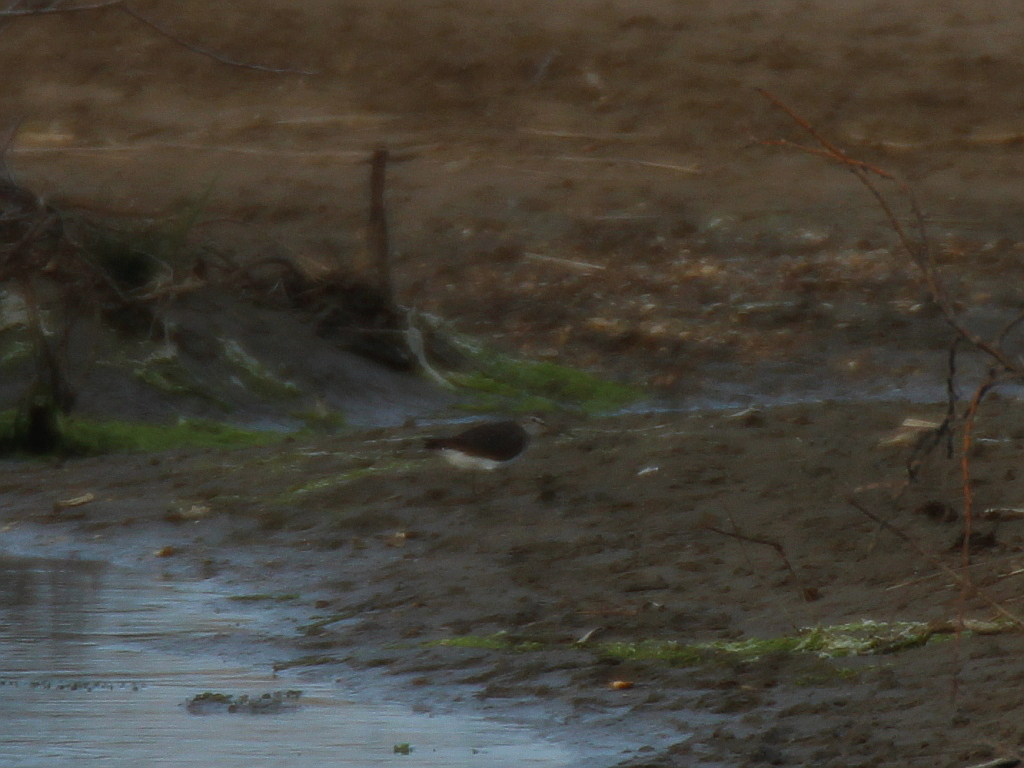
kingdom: Animalia
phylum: Chordata
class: Aves
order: Charadriiformes
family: Scolopacidae
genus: Tringa
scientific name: Tringa ochropus
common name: Green sandpiper
